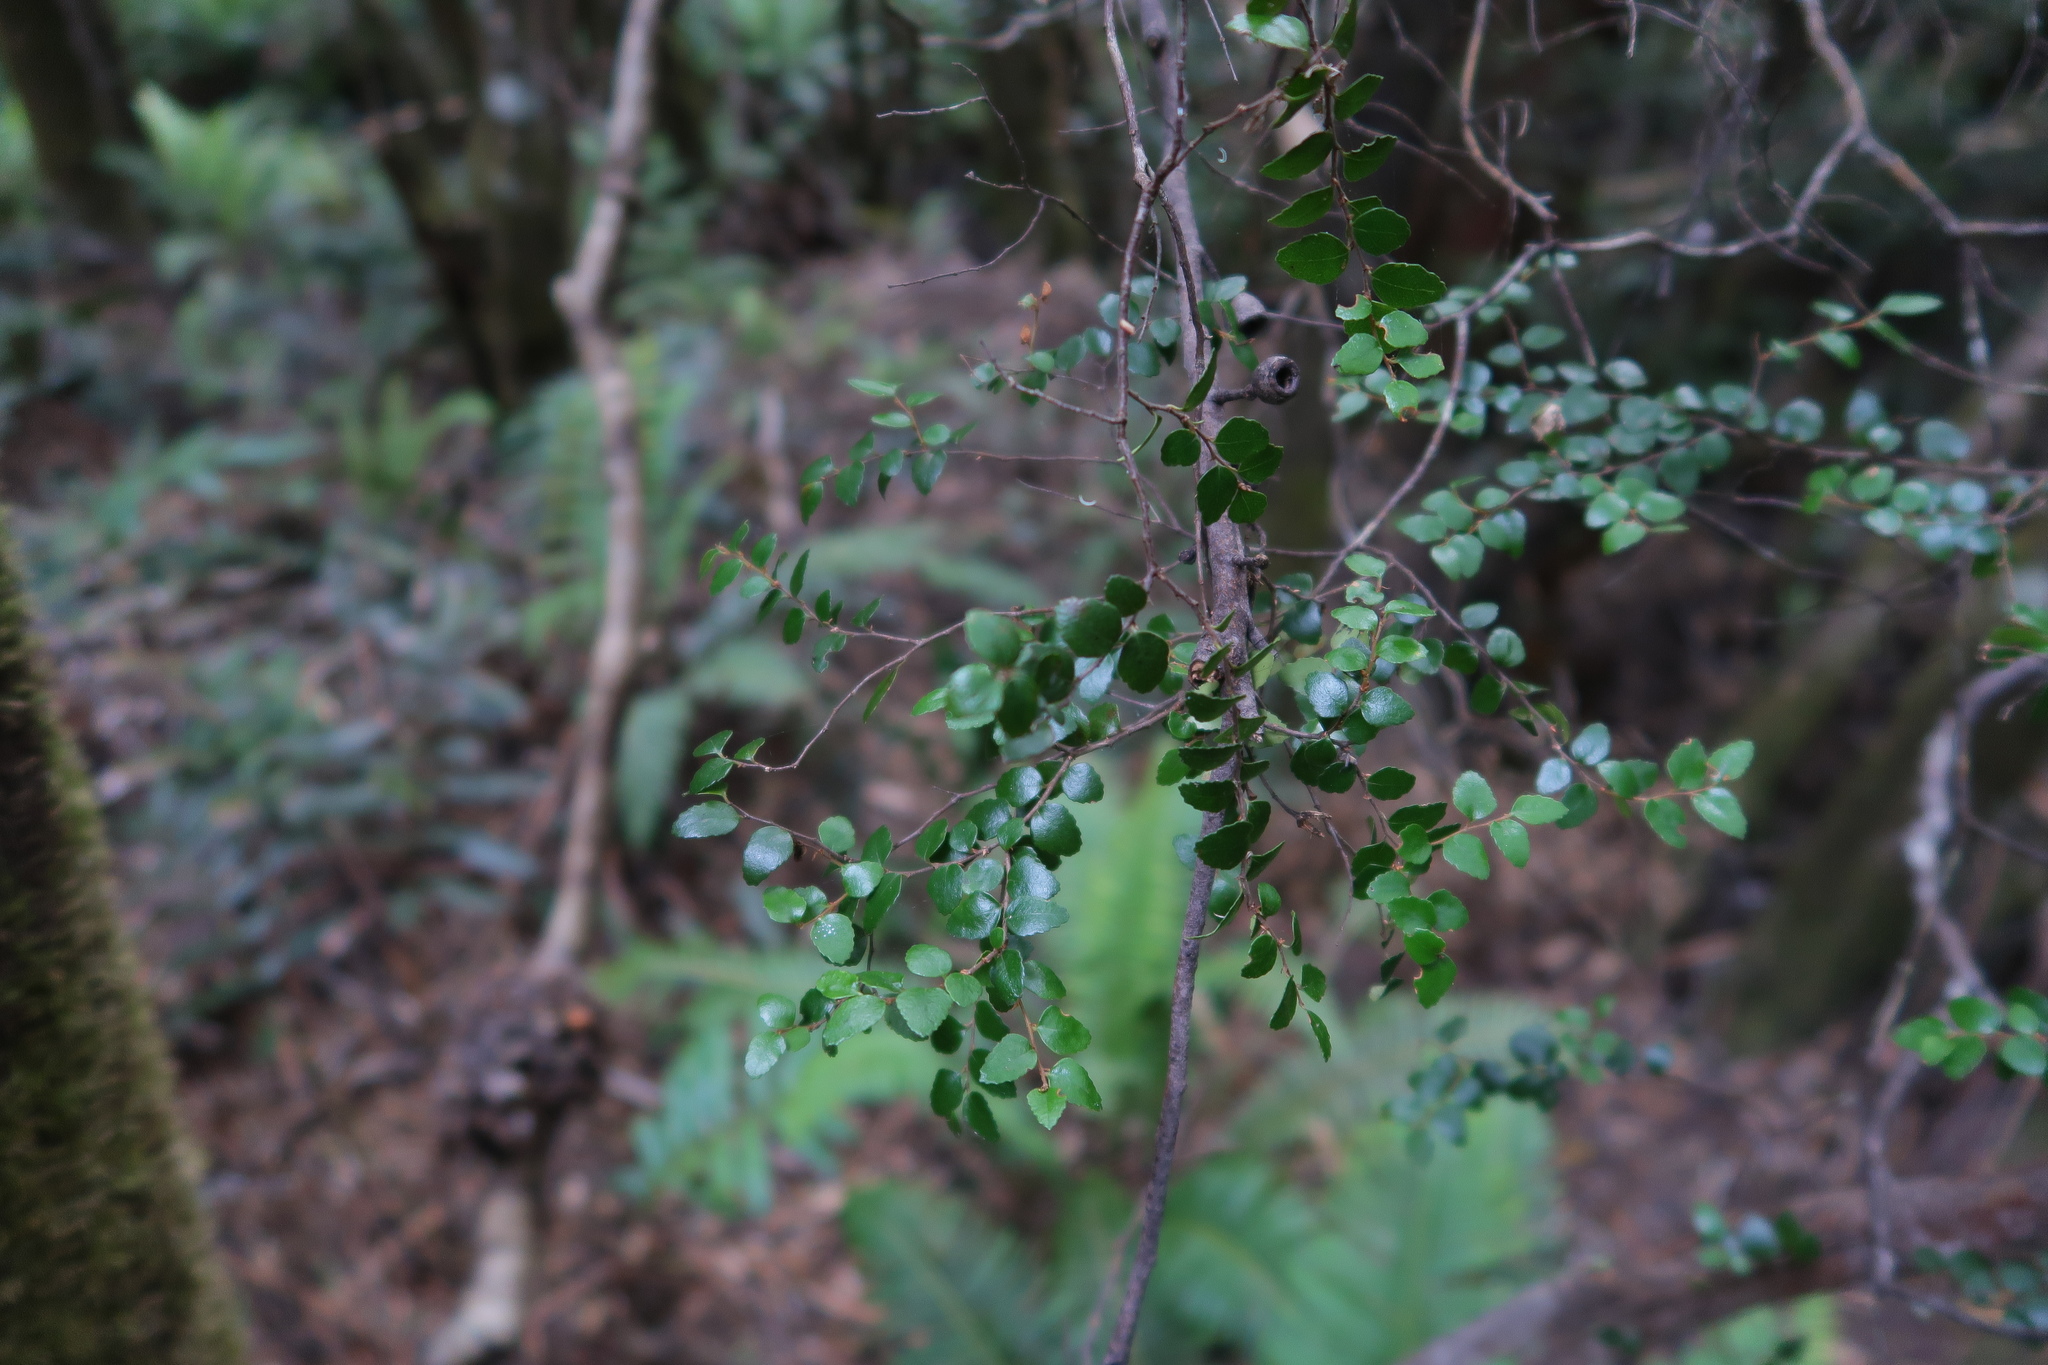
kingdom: Plantae
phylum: Tracheophyta
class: Magnoliopsida
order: Fagales
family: Nothofagaceae
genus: Nothofagus
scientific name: Nothofagus cunninghamii
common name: Myrtle beech
